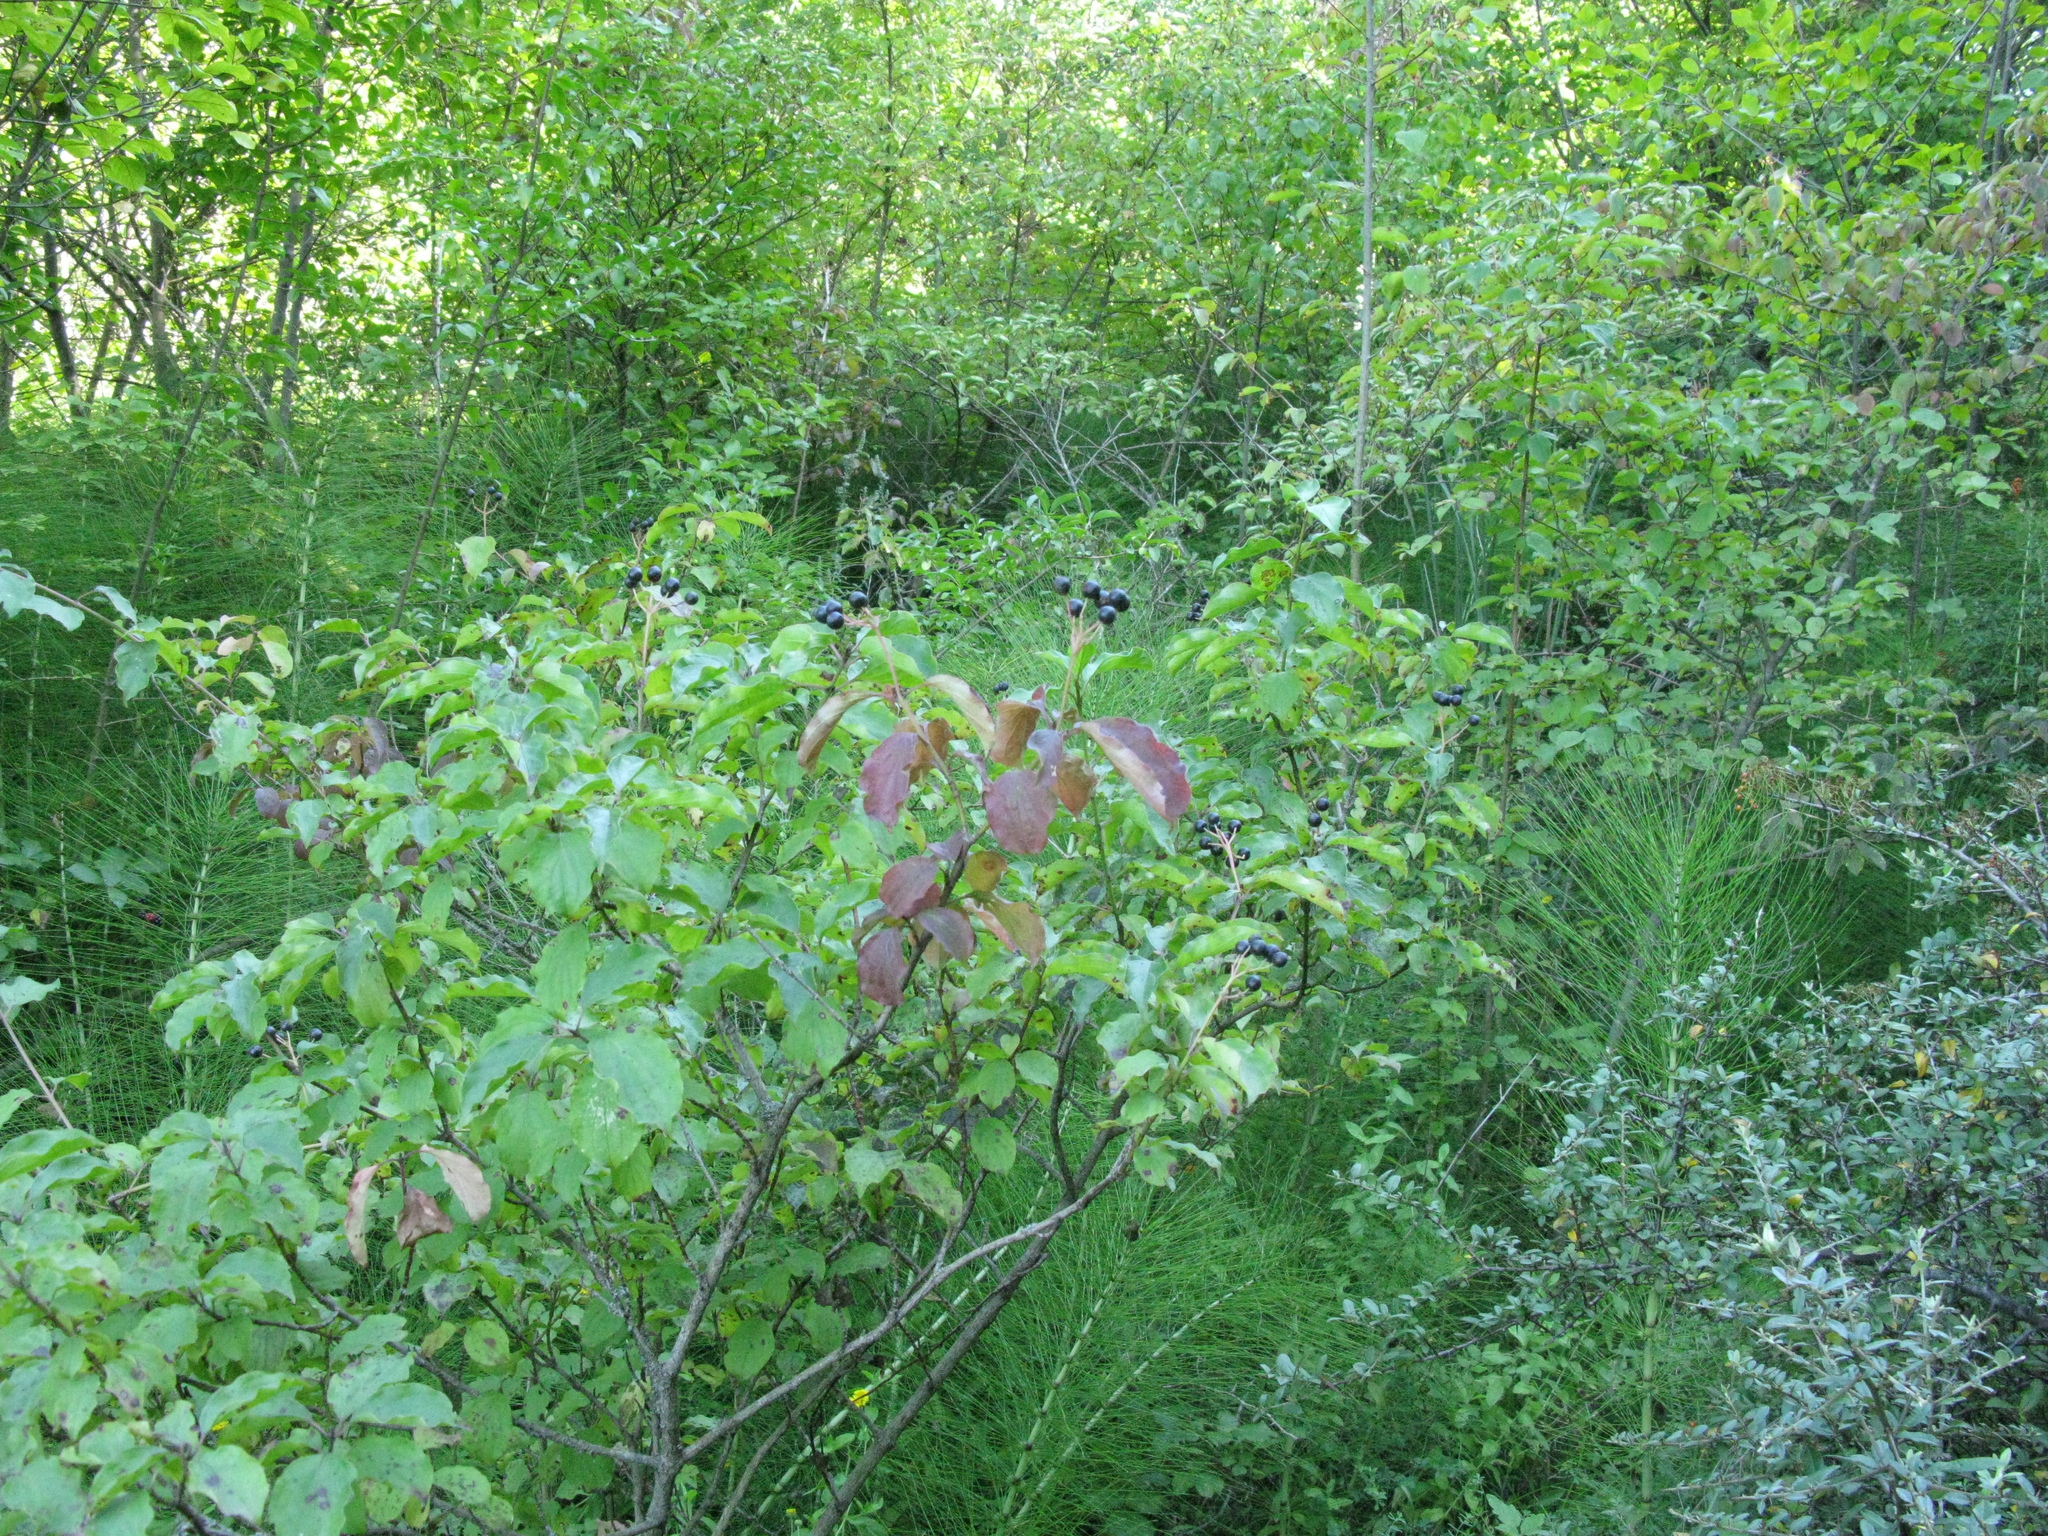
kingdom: Plantae
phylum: Tracheophyta
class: Magnoliopsida
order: Cornales
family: Cornaceae
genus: Cornus
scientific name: Cornus sanguinea
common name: Dogwood
